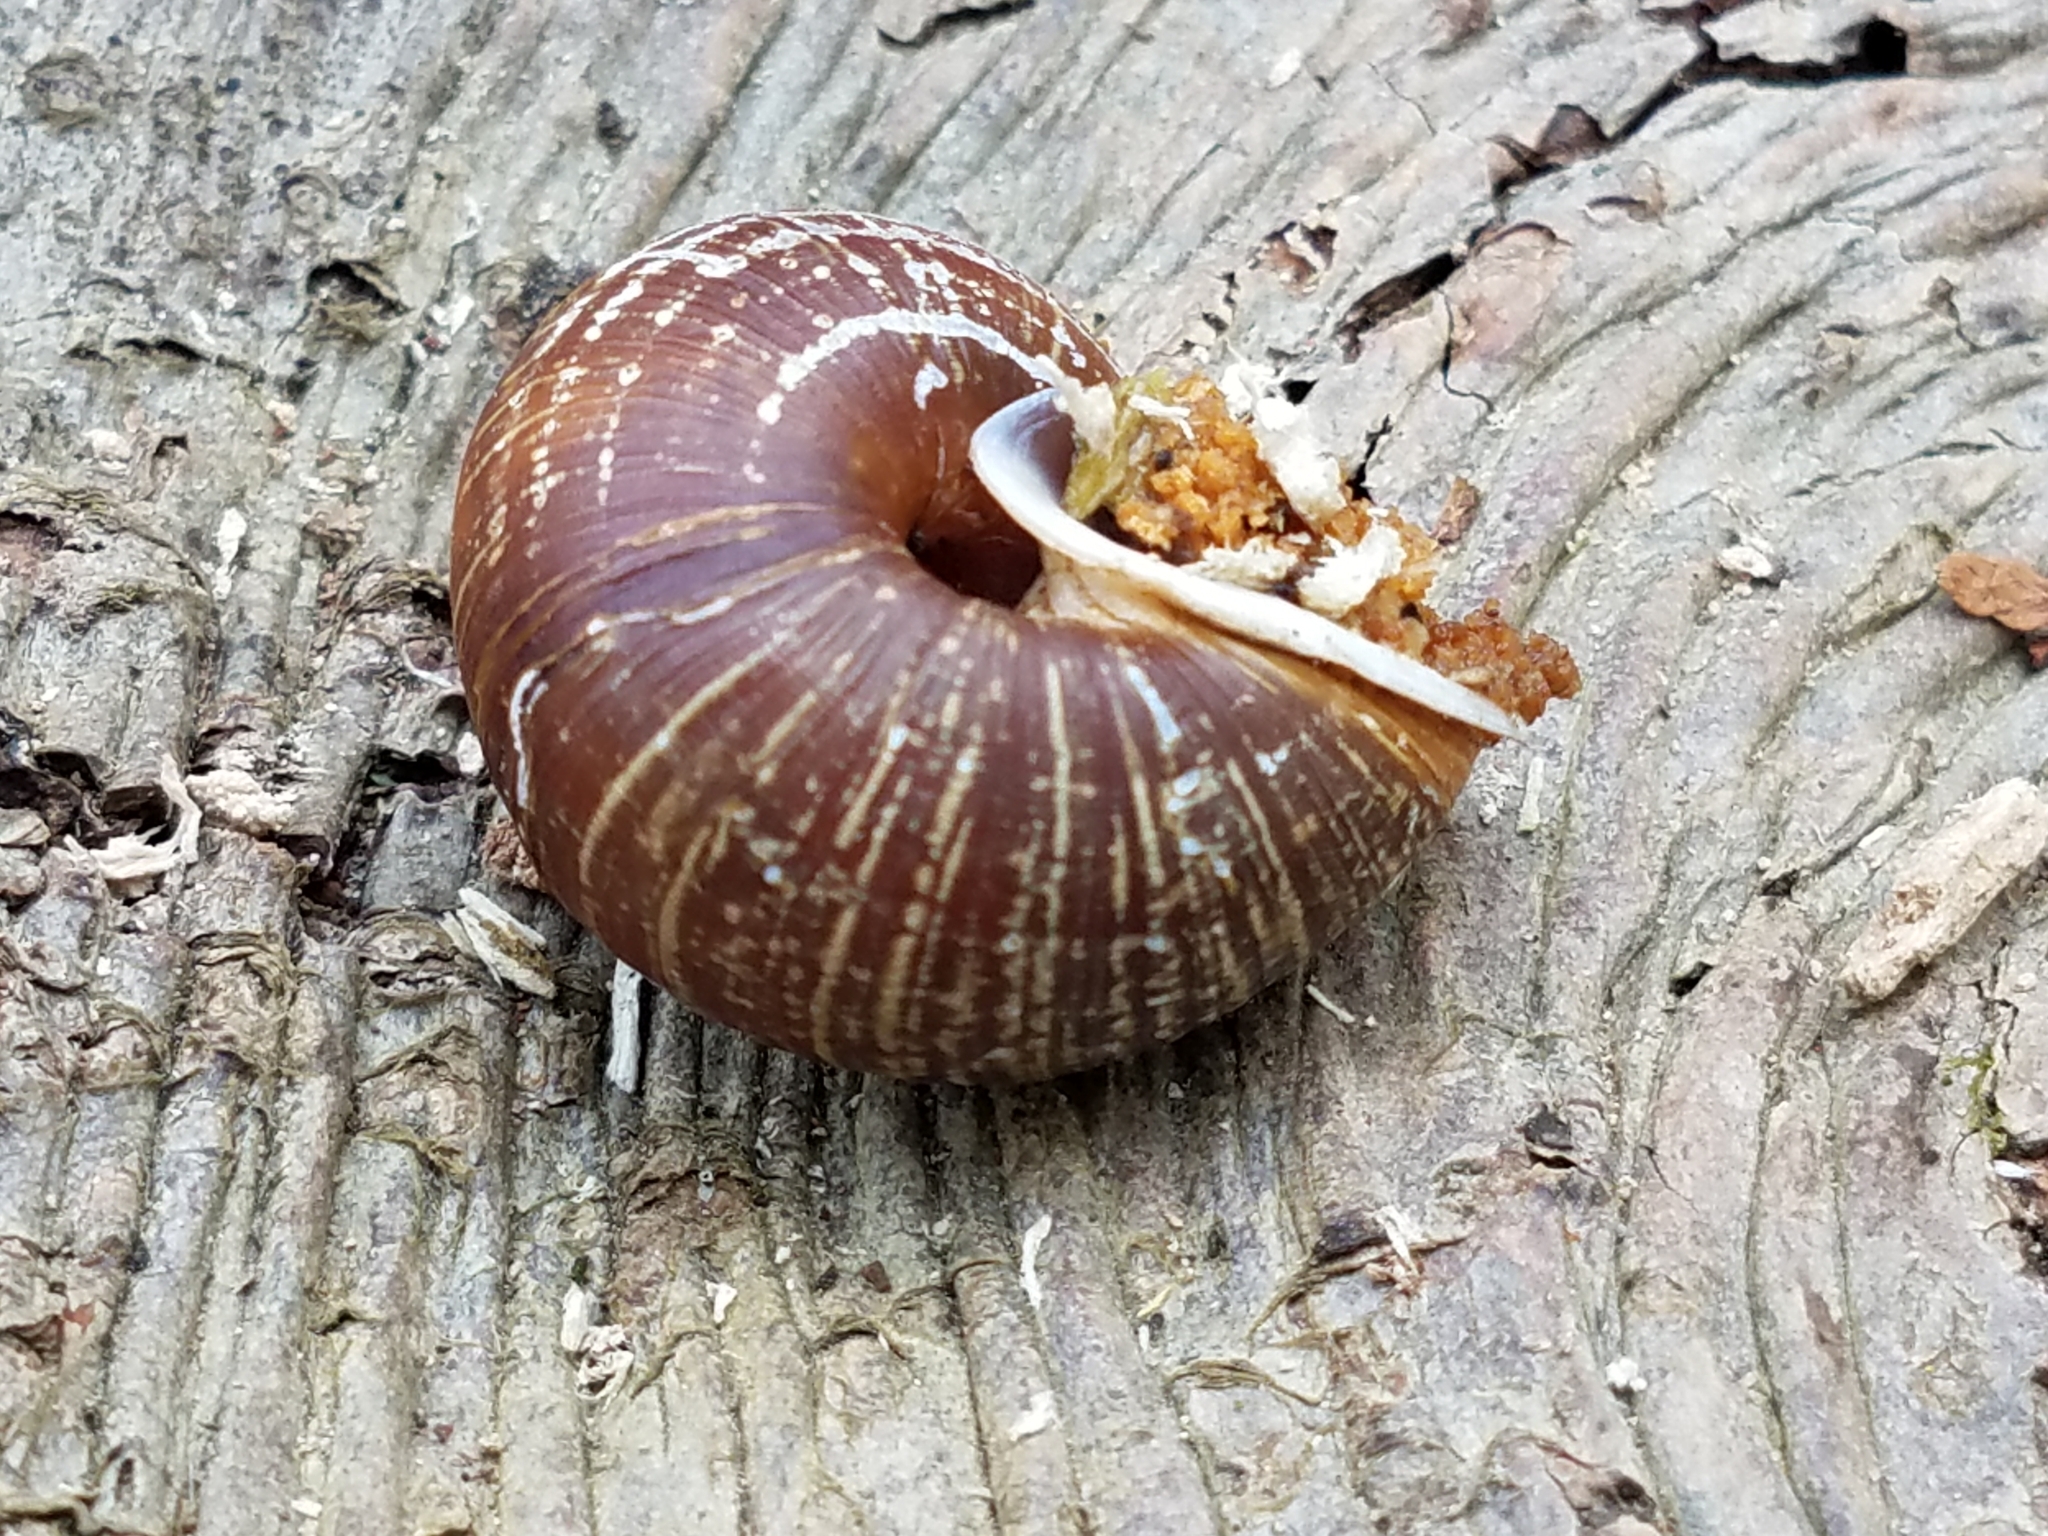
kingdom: Animalia
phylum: Mollusca
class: Gastropoda
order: Stylommatophora
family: Polygyridae
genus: Allogona
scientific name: Allogona townsendiana
